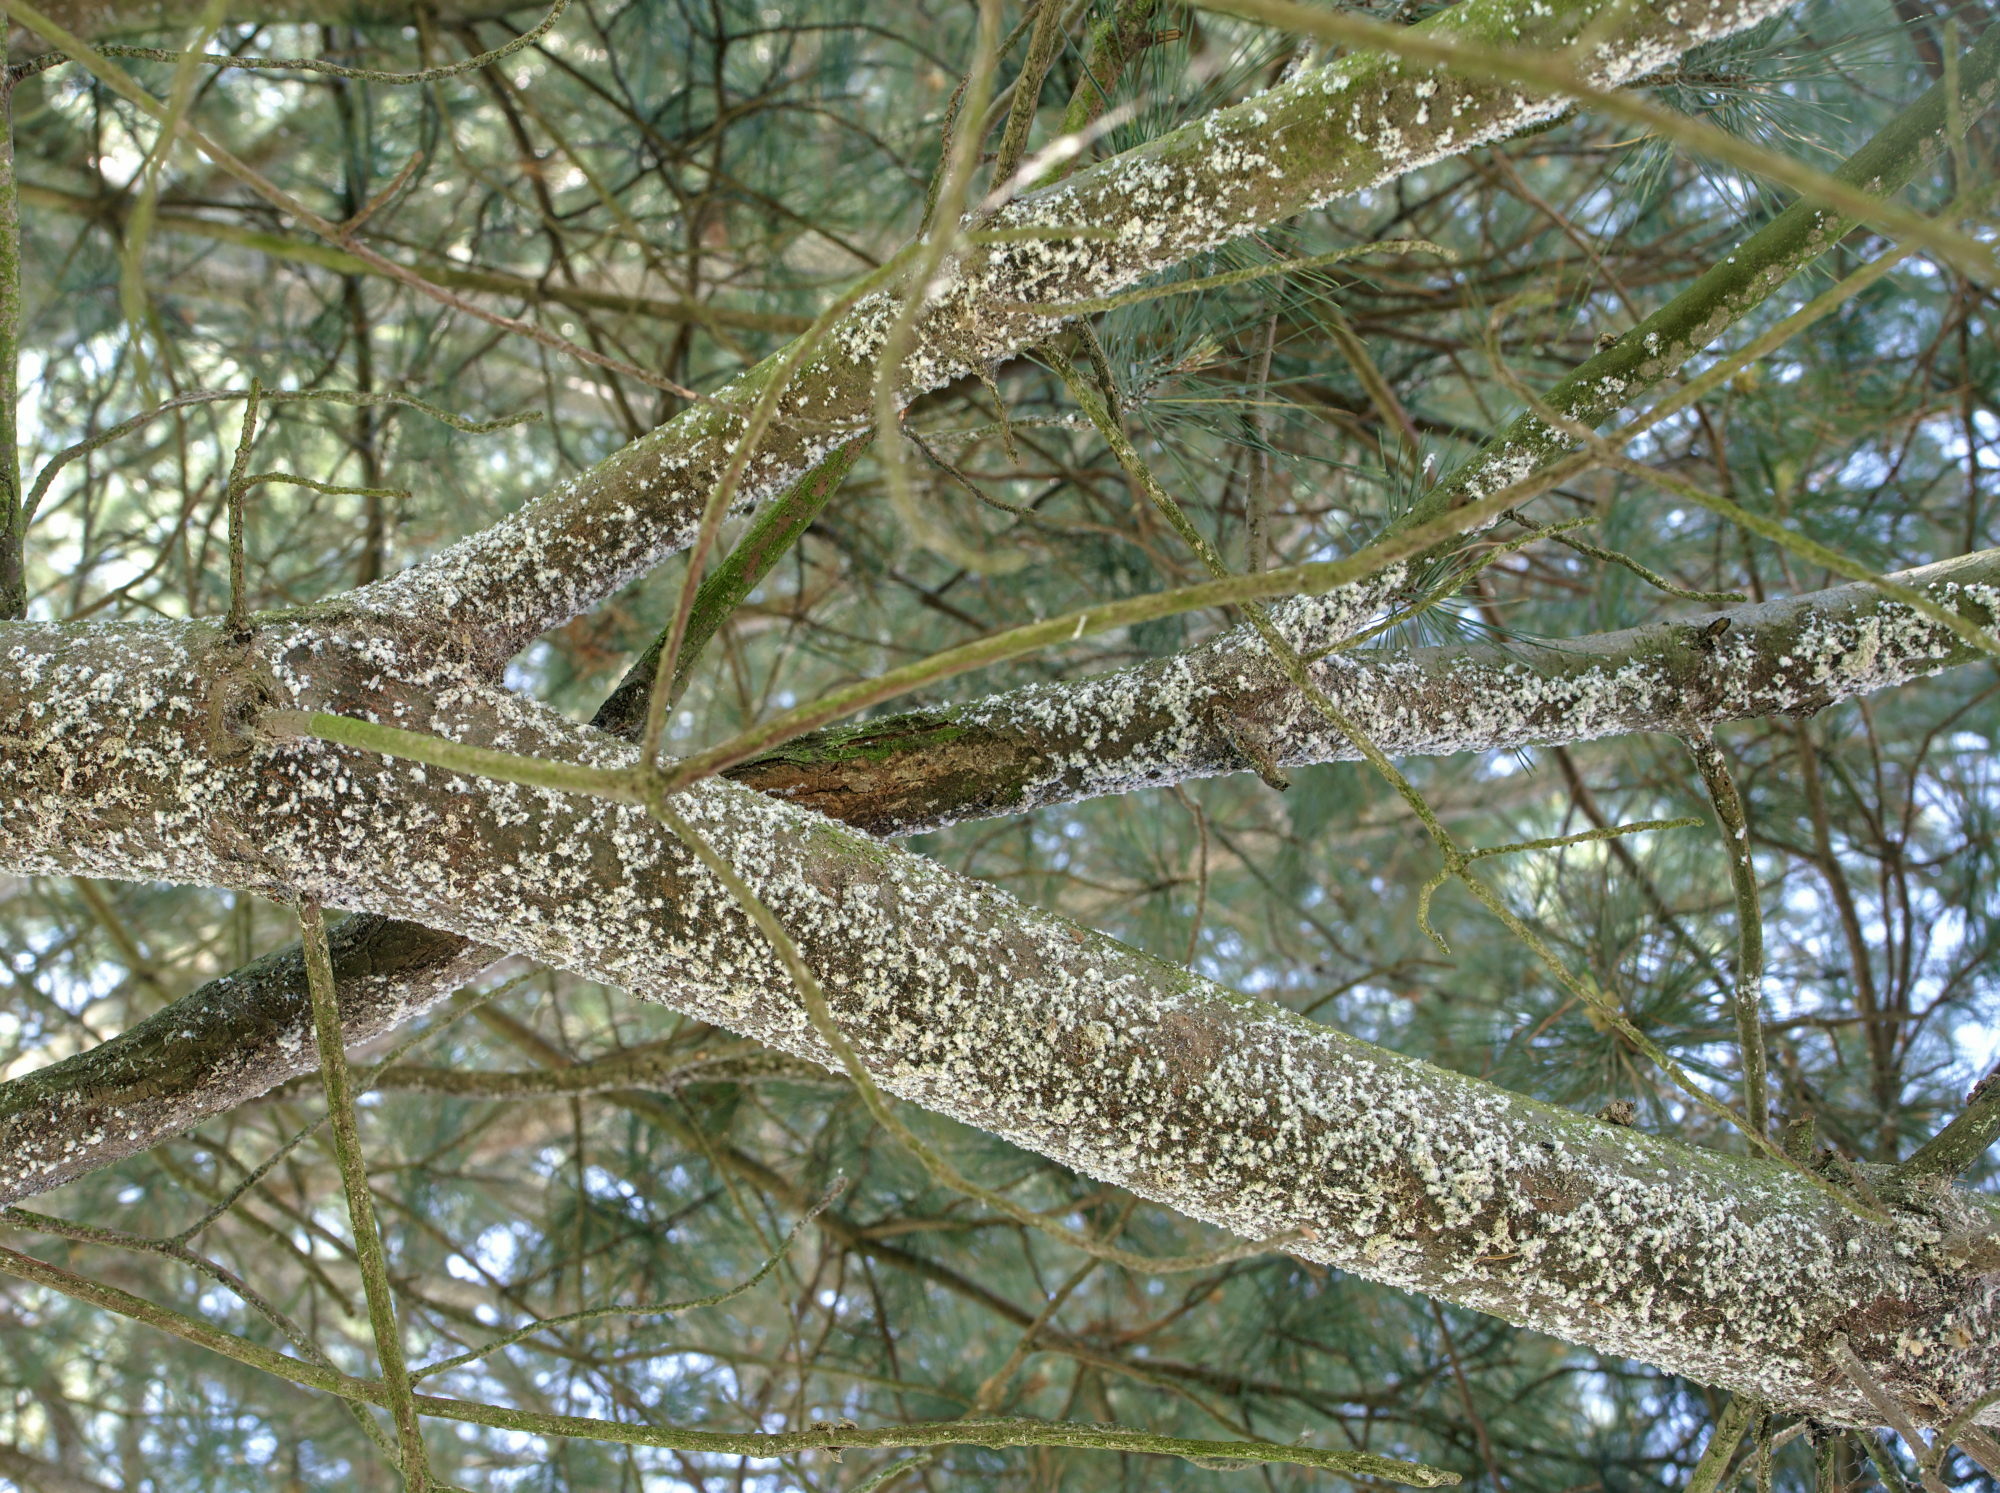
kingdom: Animalia
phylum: Arthropoda
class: Insecta
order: Hemiptera
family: Adelgidae
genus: Pineus
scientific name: Pineus strobi
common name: Pine bark adelgid
